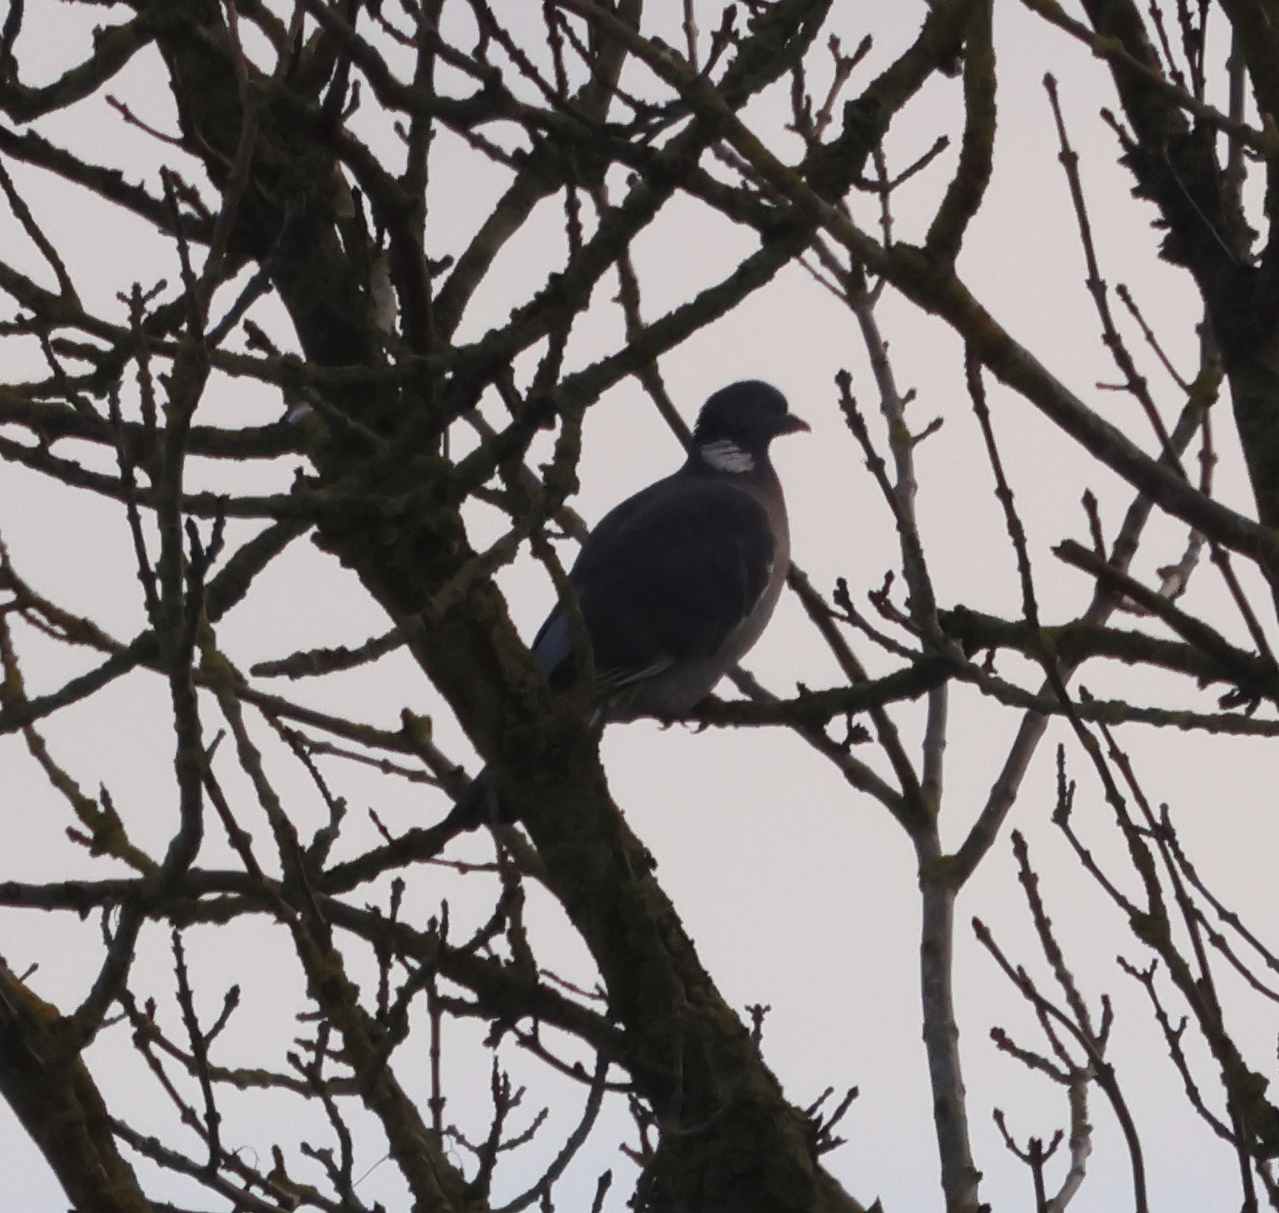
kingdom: Animalia
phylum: Chordata
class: Aves
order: Columbiformes
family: Columbidae
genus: Columba
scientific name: Columba palumbus
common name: Common wood pigeon
